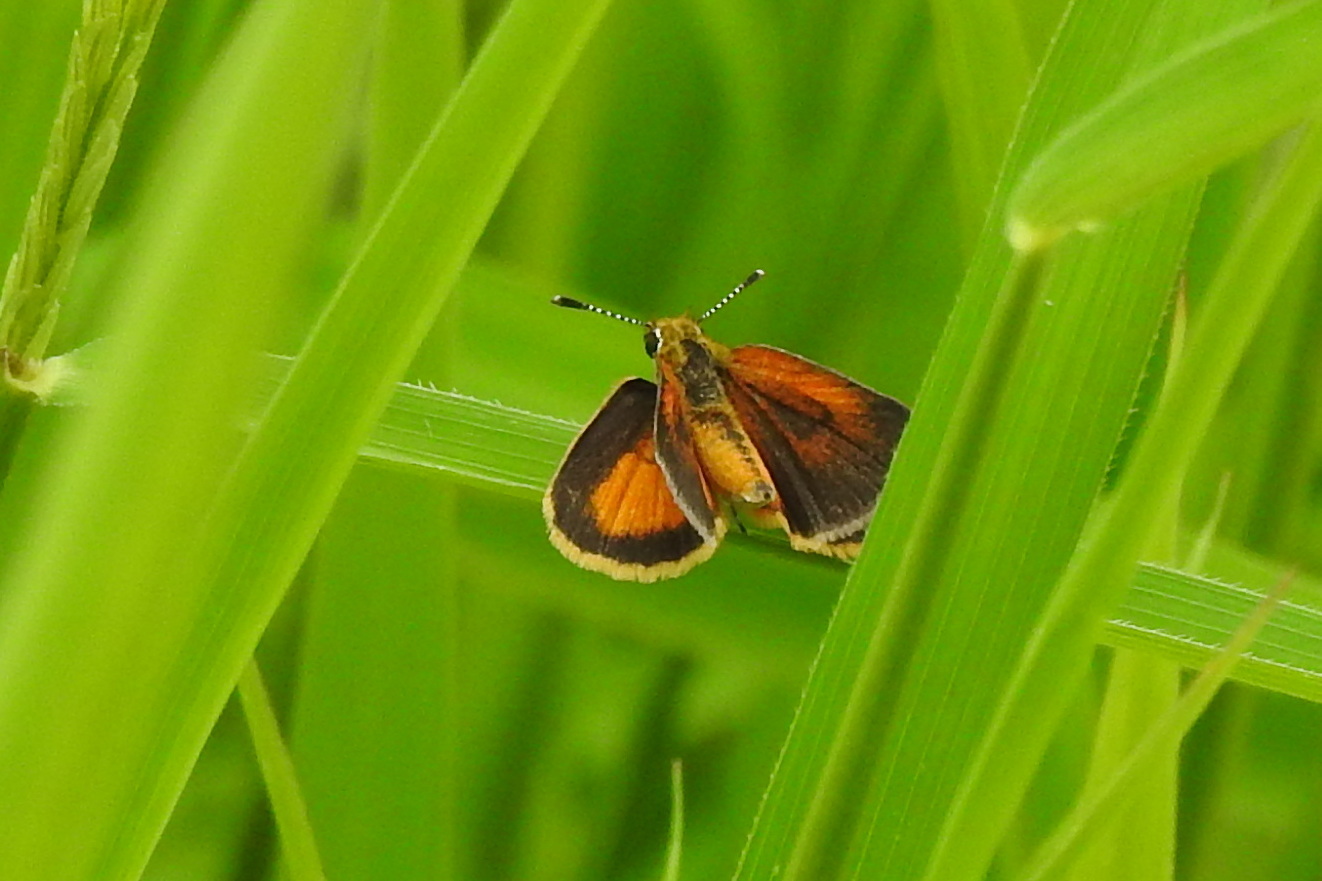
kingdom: Animalia
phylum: Arthropoda
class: Insecta
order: Lepidoptera
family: Hesperiidae
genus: Ancyloxypha
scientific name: Ancyloxypha numitor
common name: Least skipper
